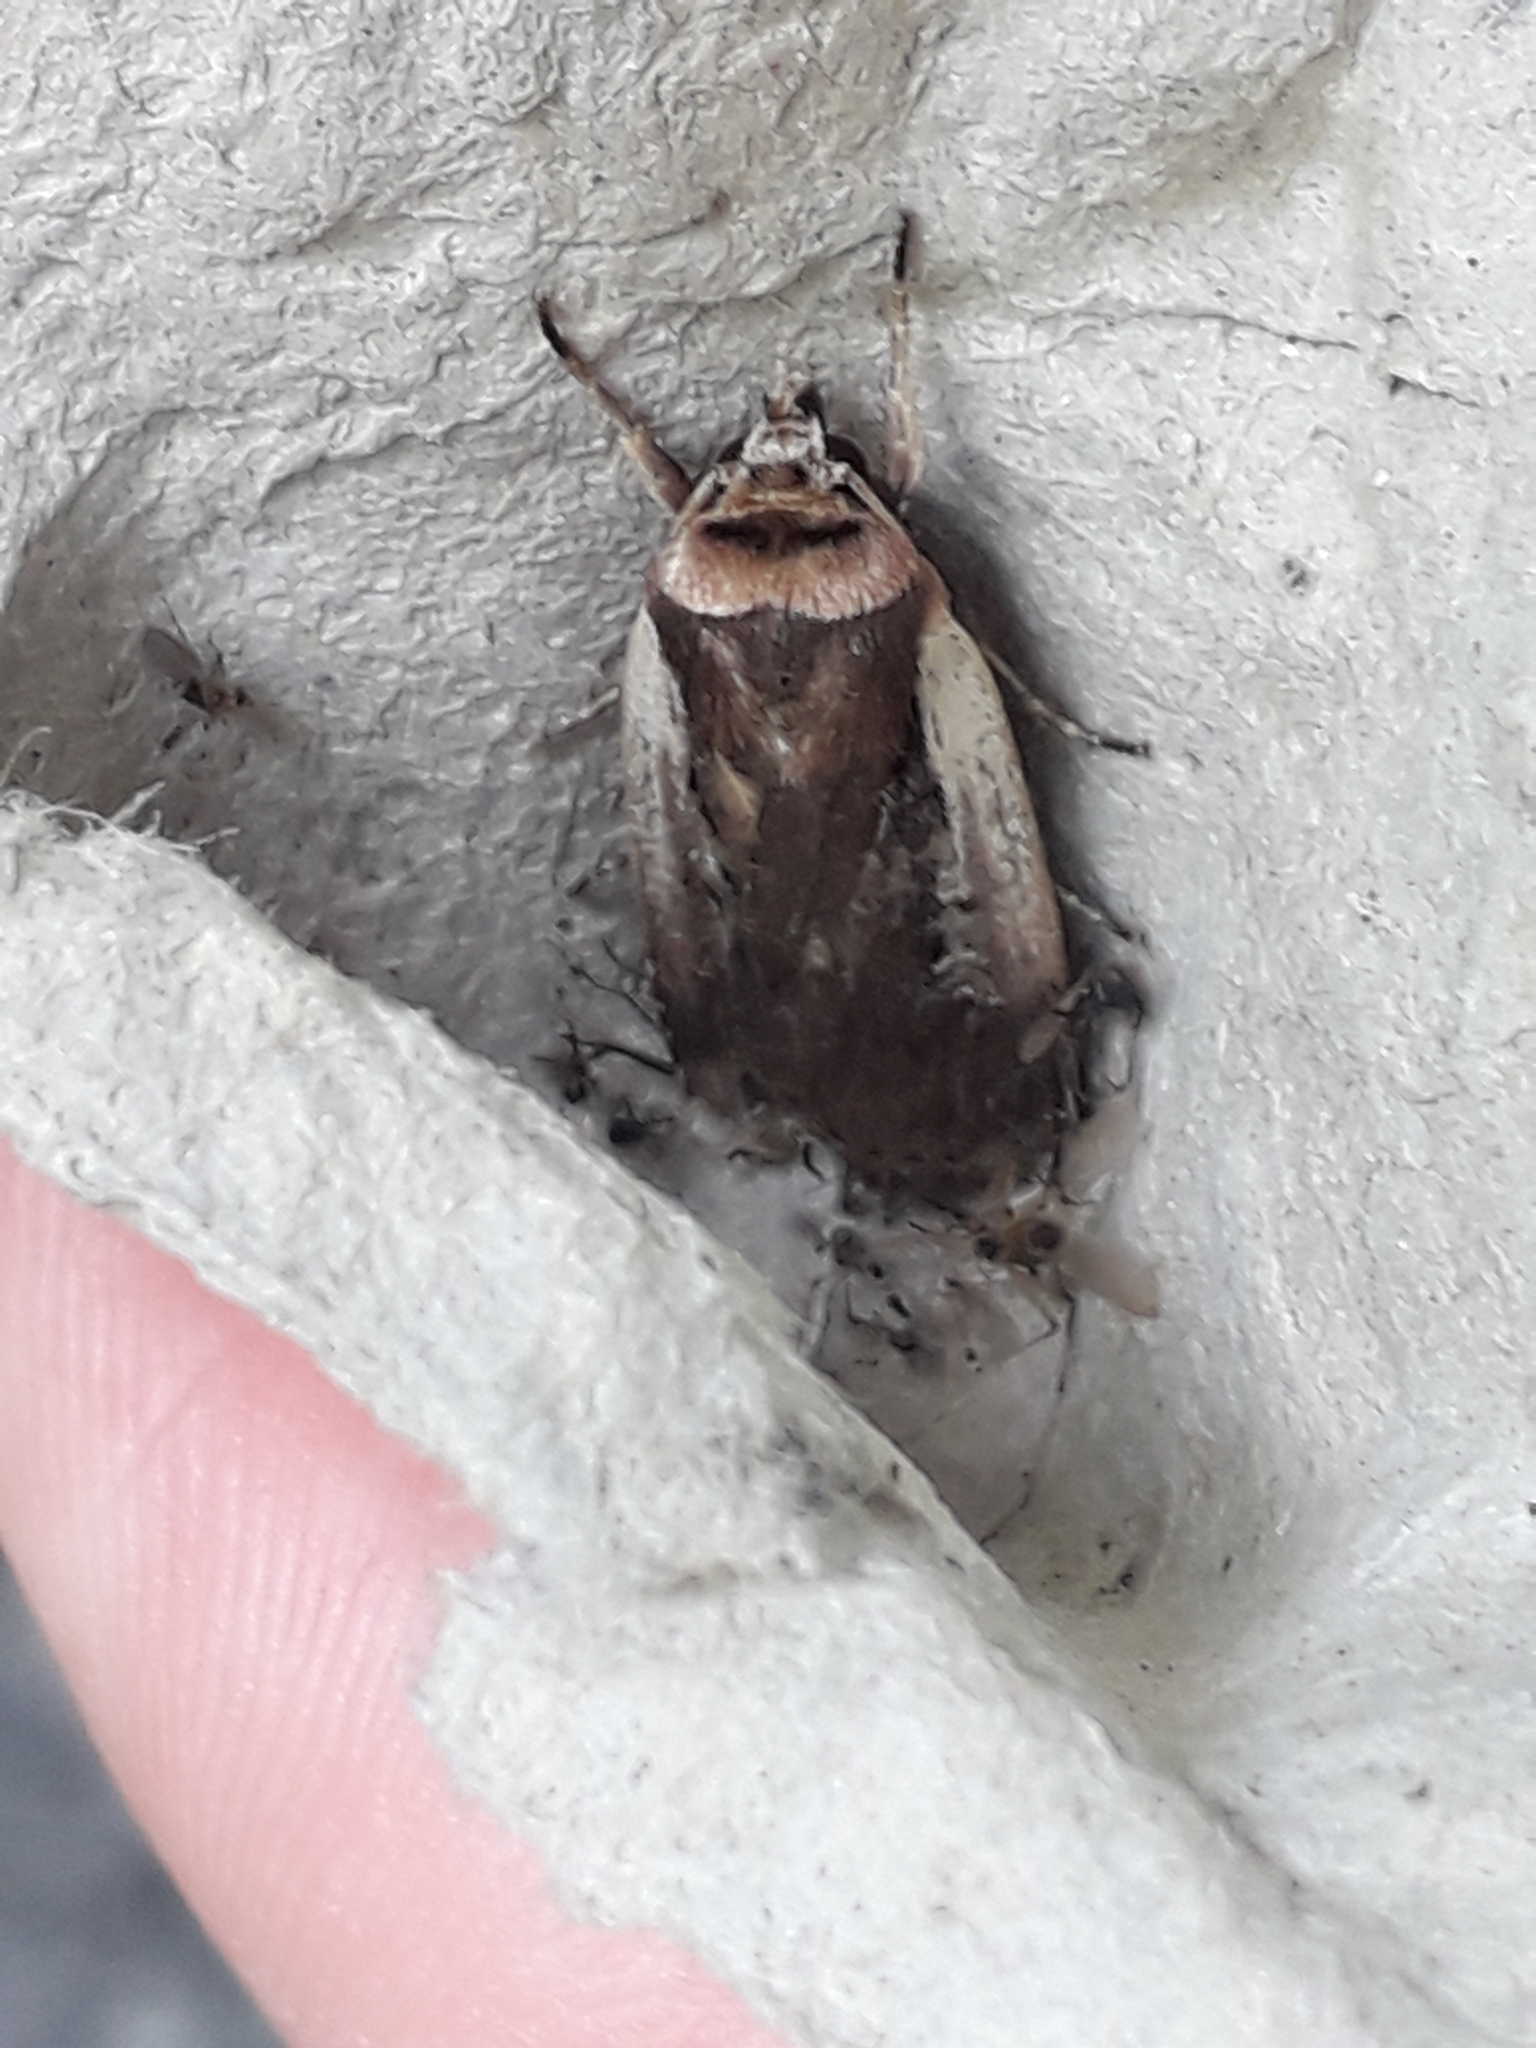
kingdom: Animalia
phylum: Arthropoda
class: Insecta
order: Lepidoptera
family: Noctuidae
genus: Ochropleura
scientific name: Ochropleura plecta
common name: Flame shoulder
